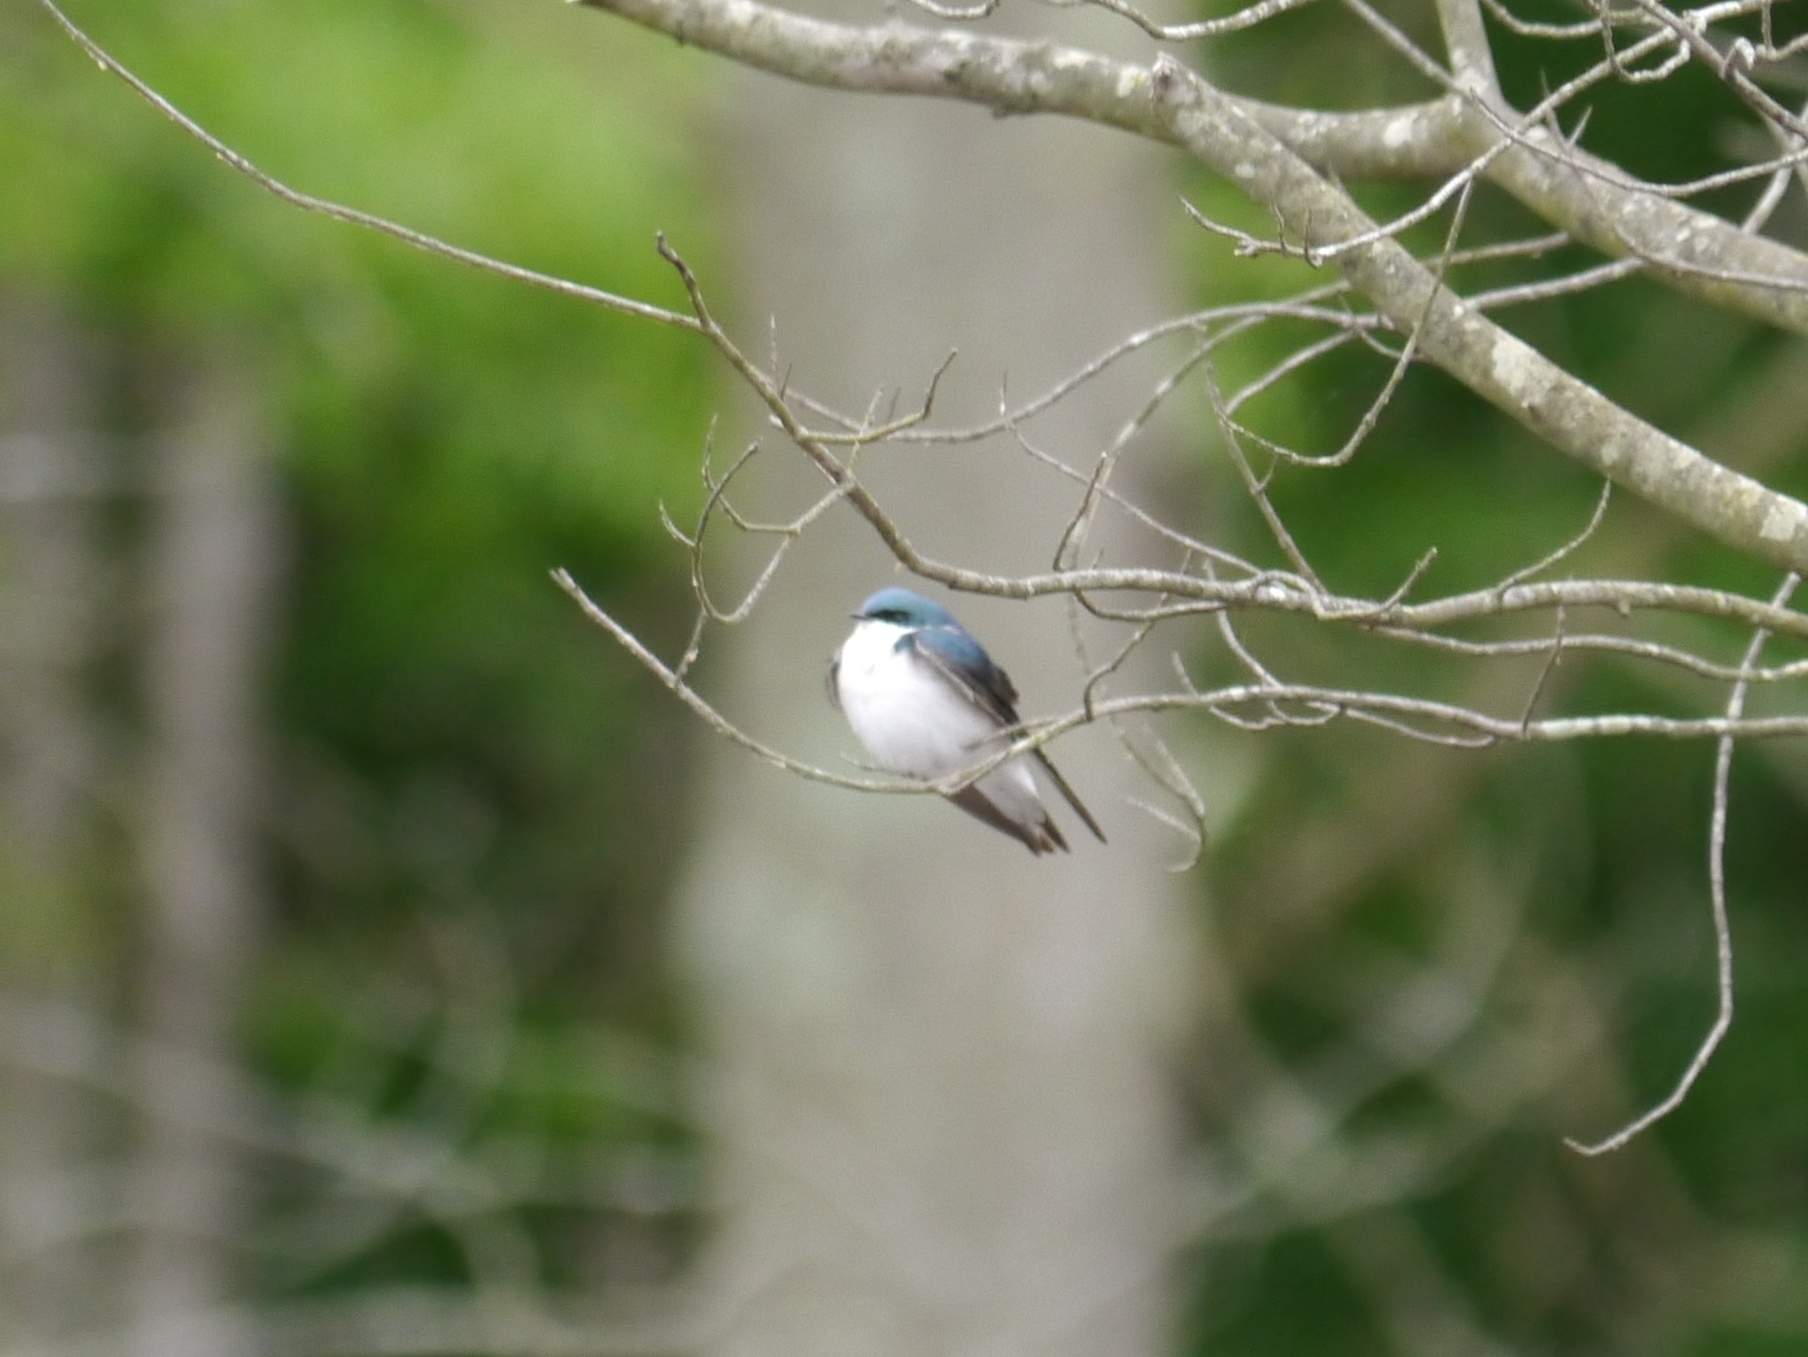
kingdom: Animalia
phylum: Chordata
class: Aves
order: Passeriformes
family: Hirundinidae
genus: Tachycineta
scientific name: Tachycineta bicolor
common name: Tree swallow
